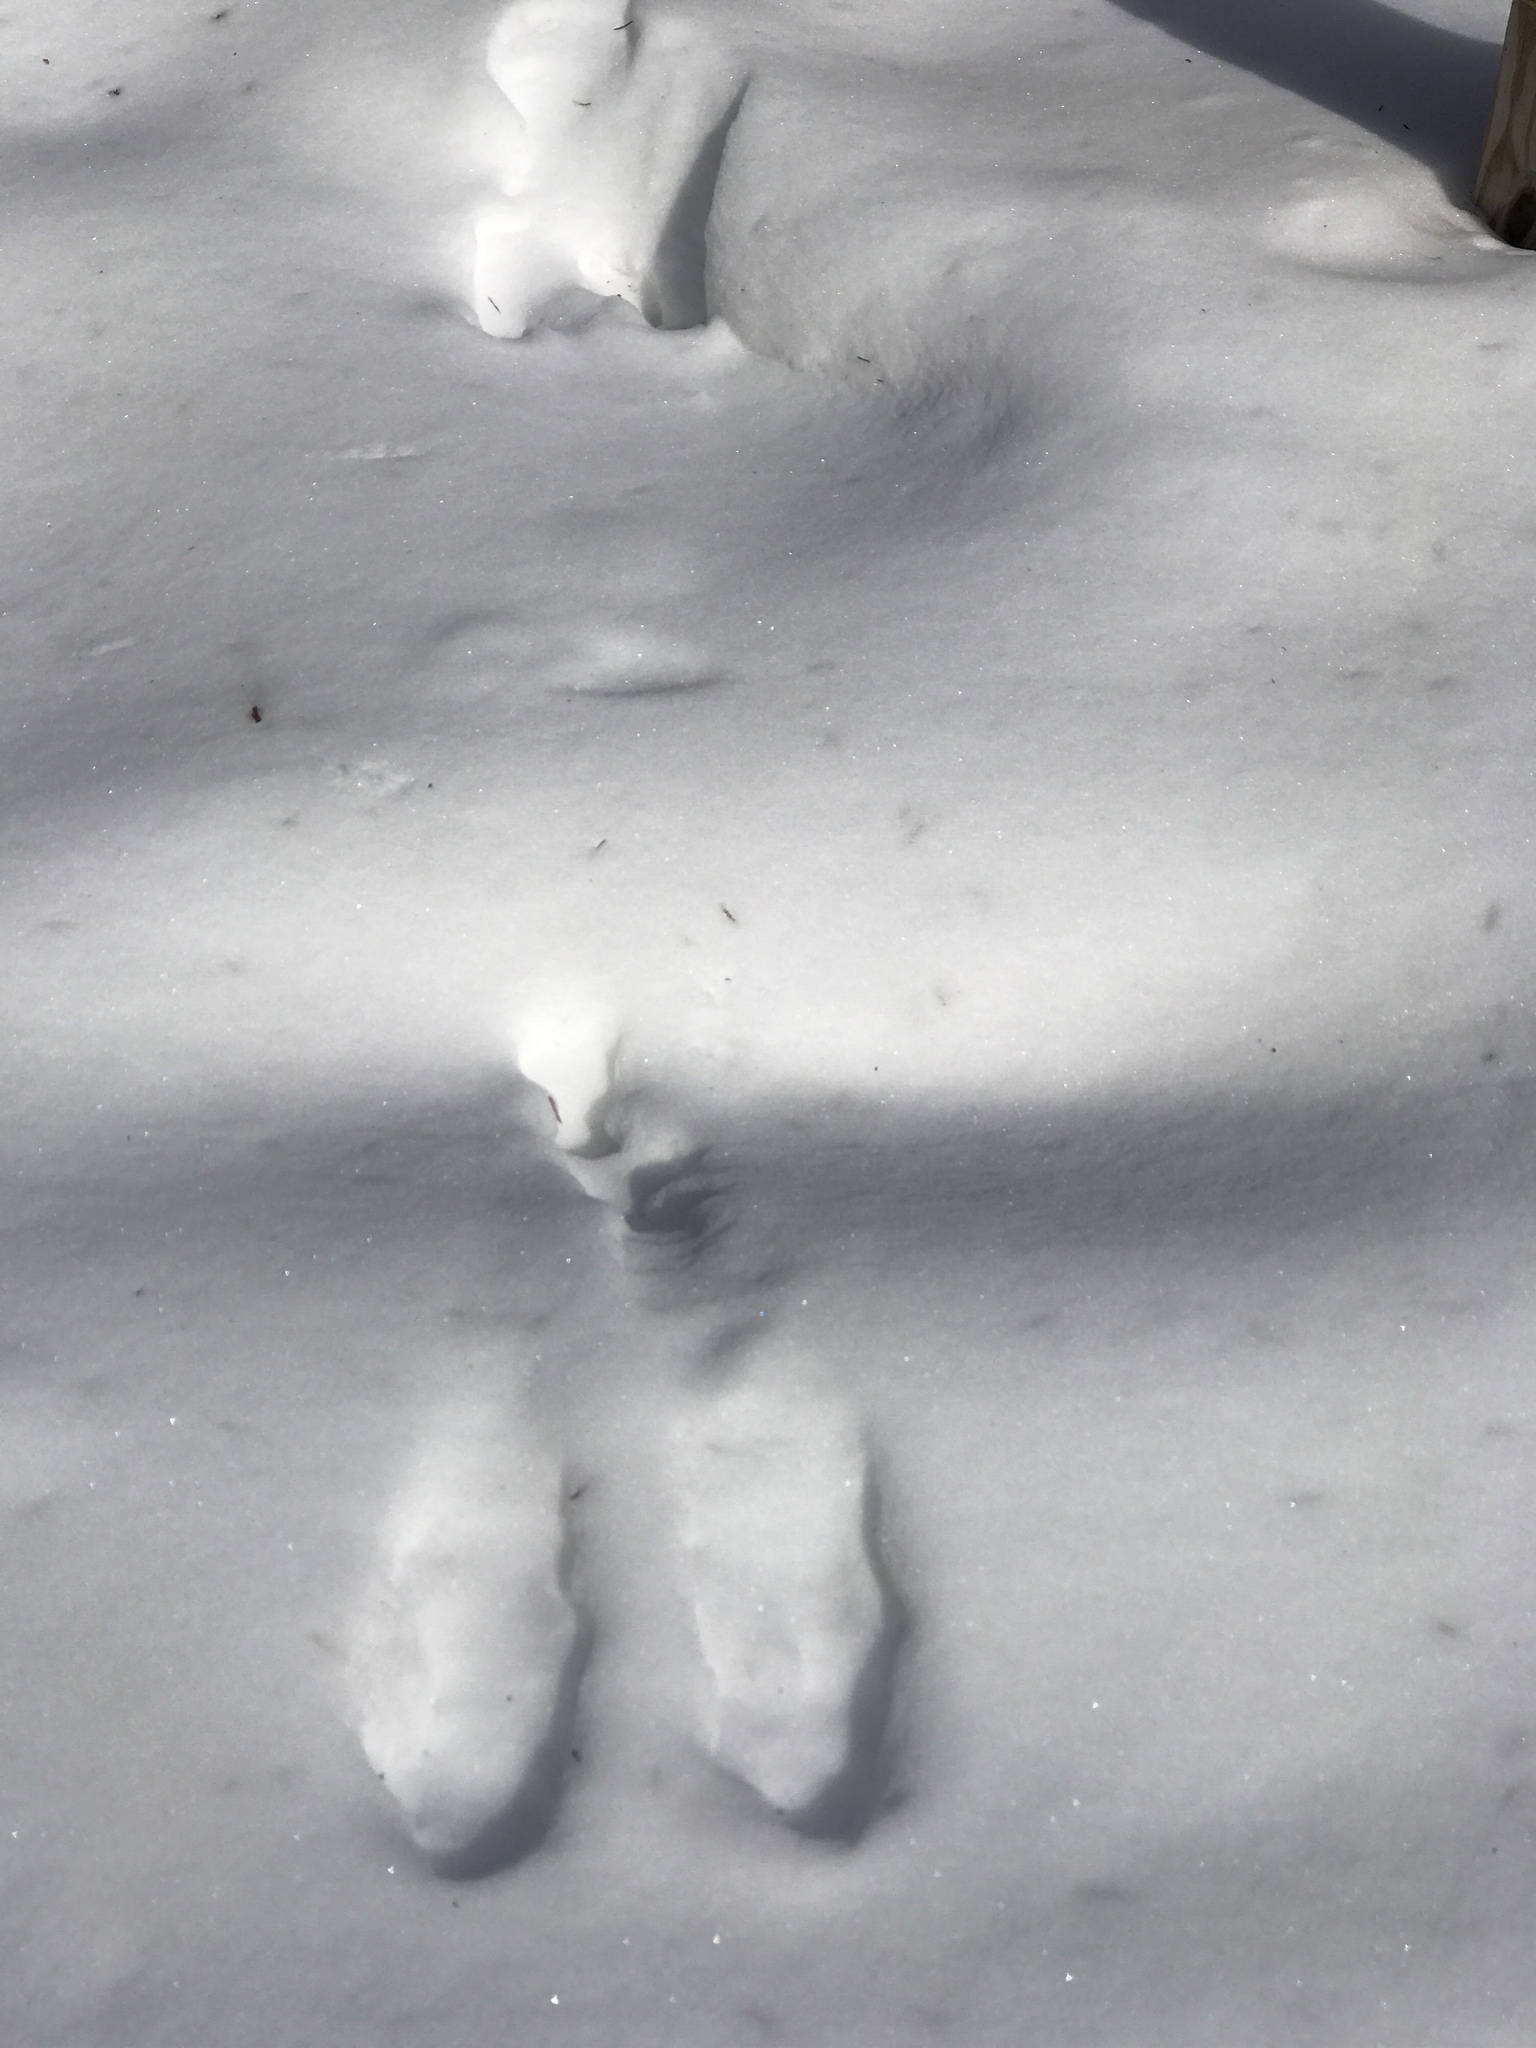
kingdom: Animalia
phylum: Chordata
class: Mammalia
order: Lagomorpha
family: Leporidae
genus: Lepus
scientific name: Lepus americanus
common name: Snowshoe hare
